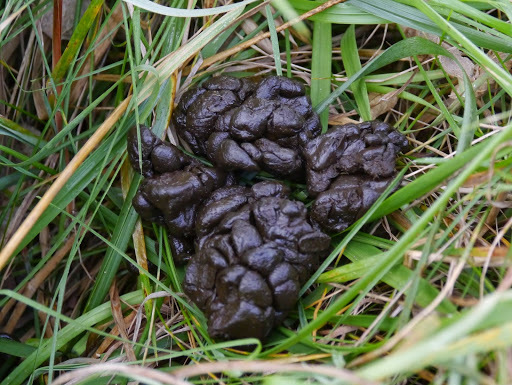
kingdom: Animalia
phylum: Chordata
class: Mammalia
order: Artiodactyla
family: Cervidae
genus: Odocoileus
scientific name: Odocoileus virginianus
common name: White-tailed deer
